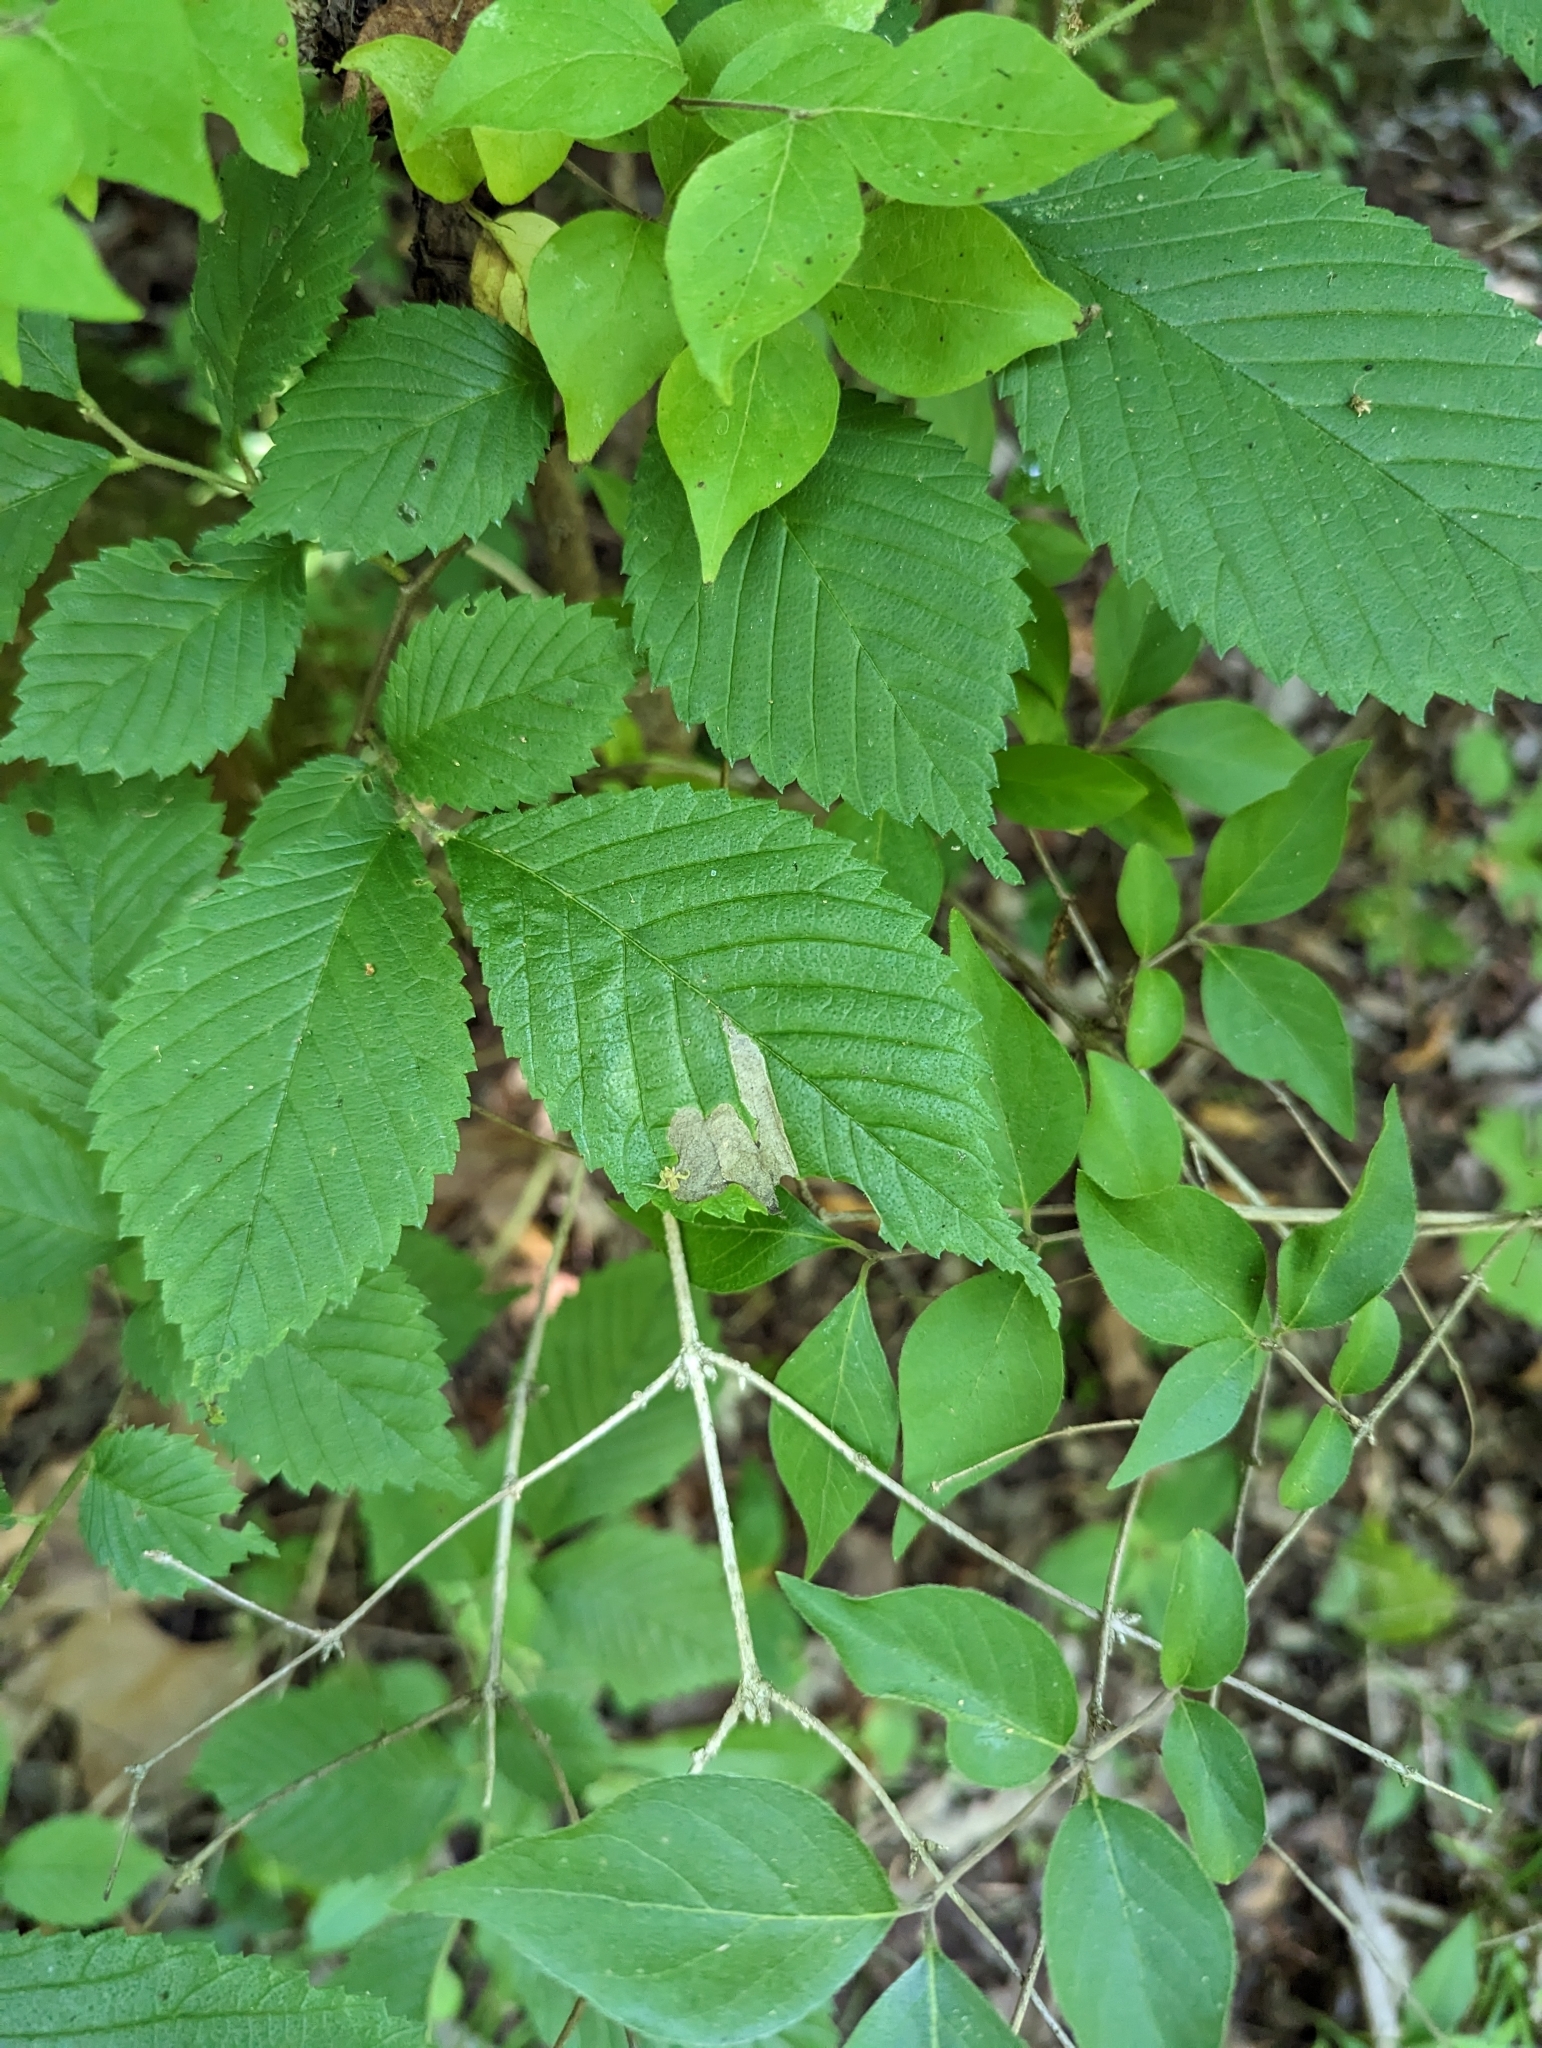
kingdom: Animalia
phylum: Arthropoda
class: Insecta
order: Hymenoptera
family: Tenthredinidae
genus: Fenusa
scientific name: Fenusa ulmi
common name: Elm leafminer
